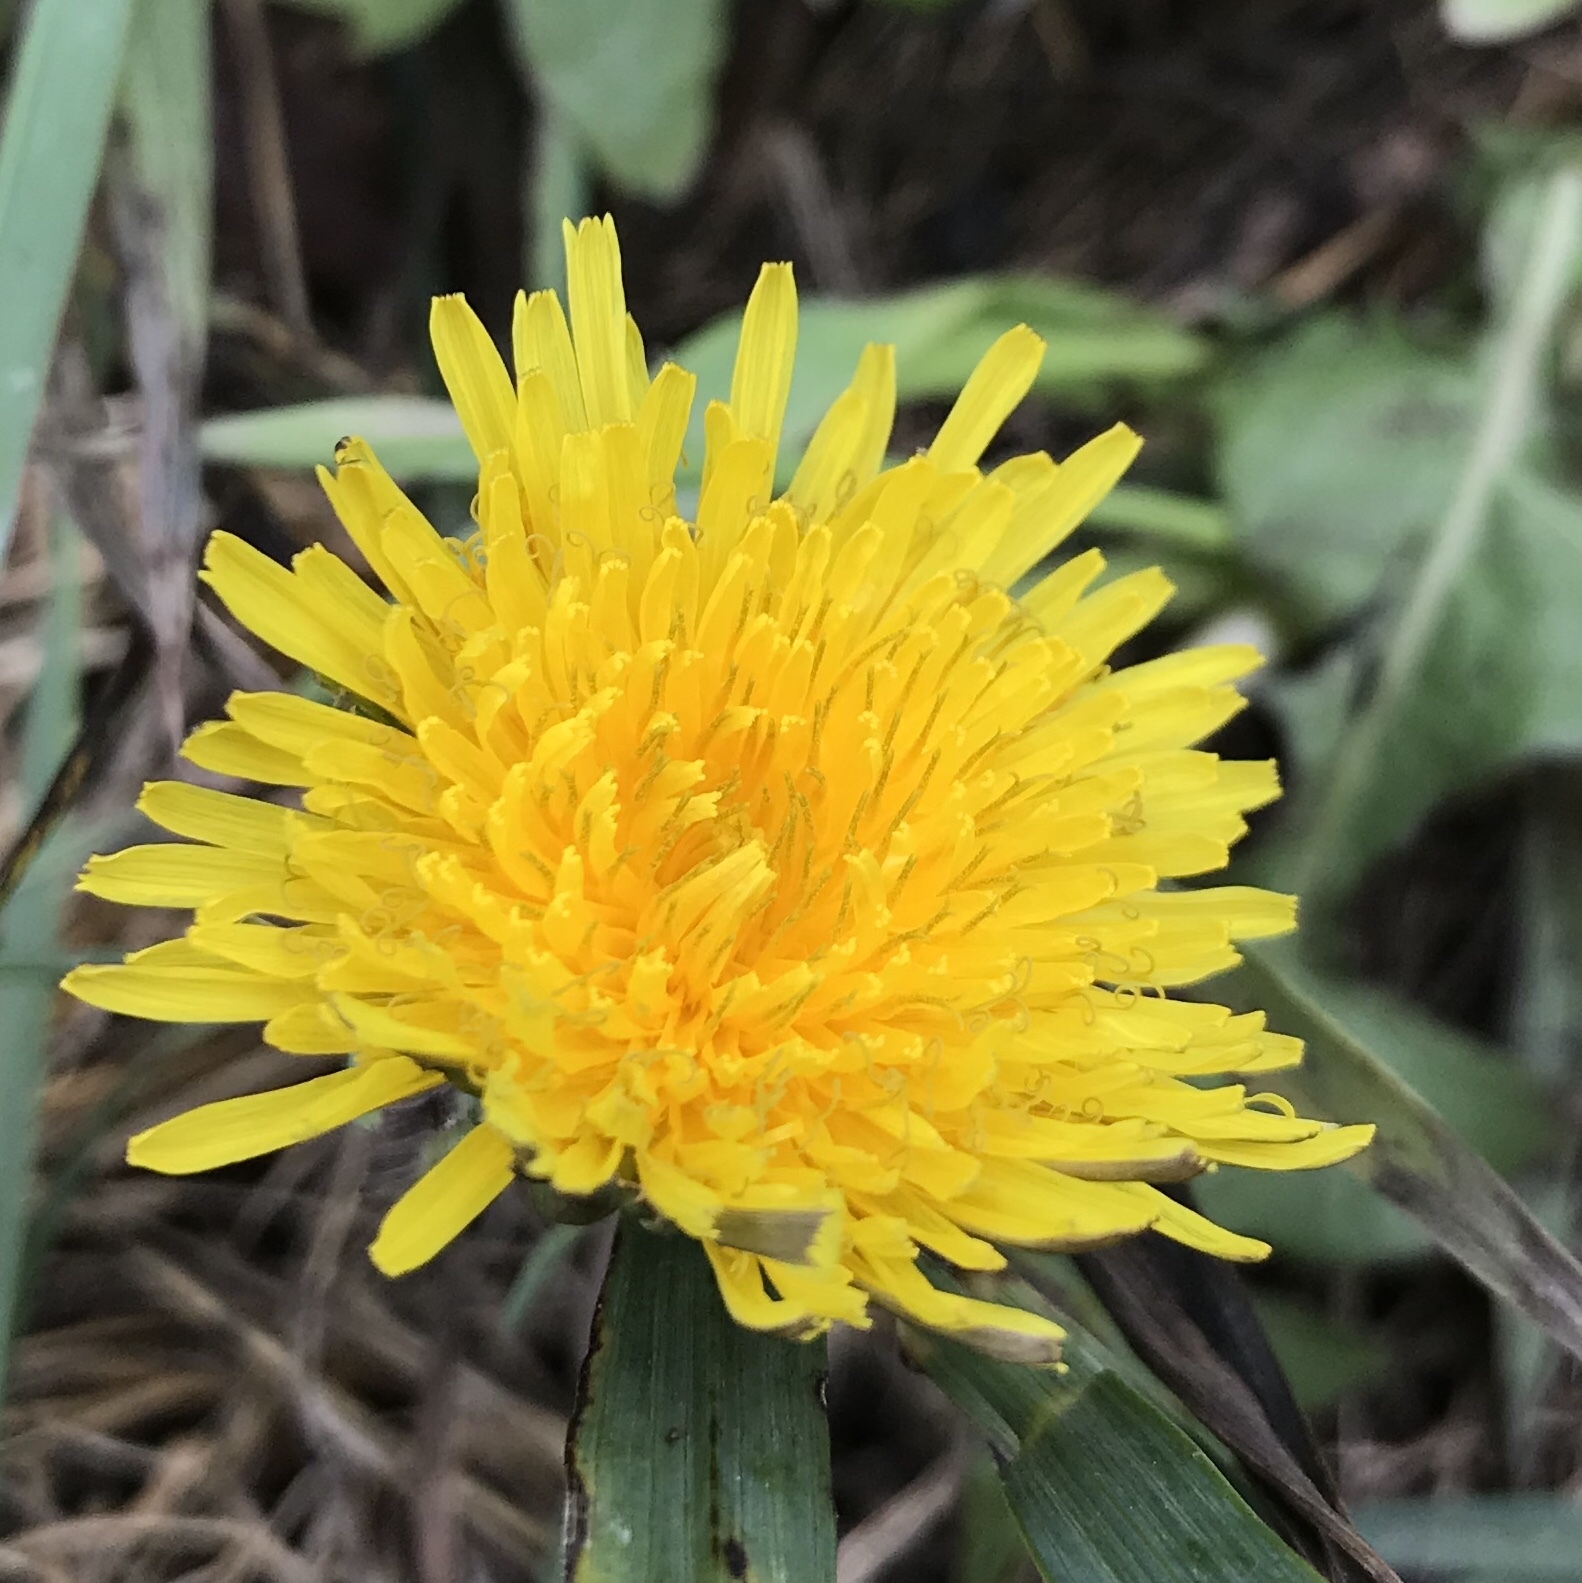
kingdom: Plantae
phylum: Tracheophyta
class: Magnoliopsida
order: Asterales
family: Asteraceae
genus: Taraxacum
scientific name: Taraxacum officinale
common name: Common dandelion
